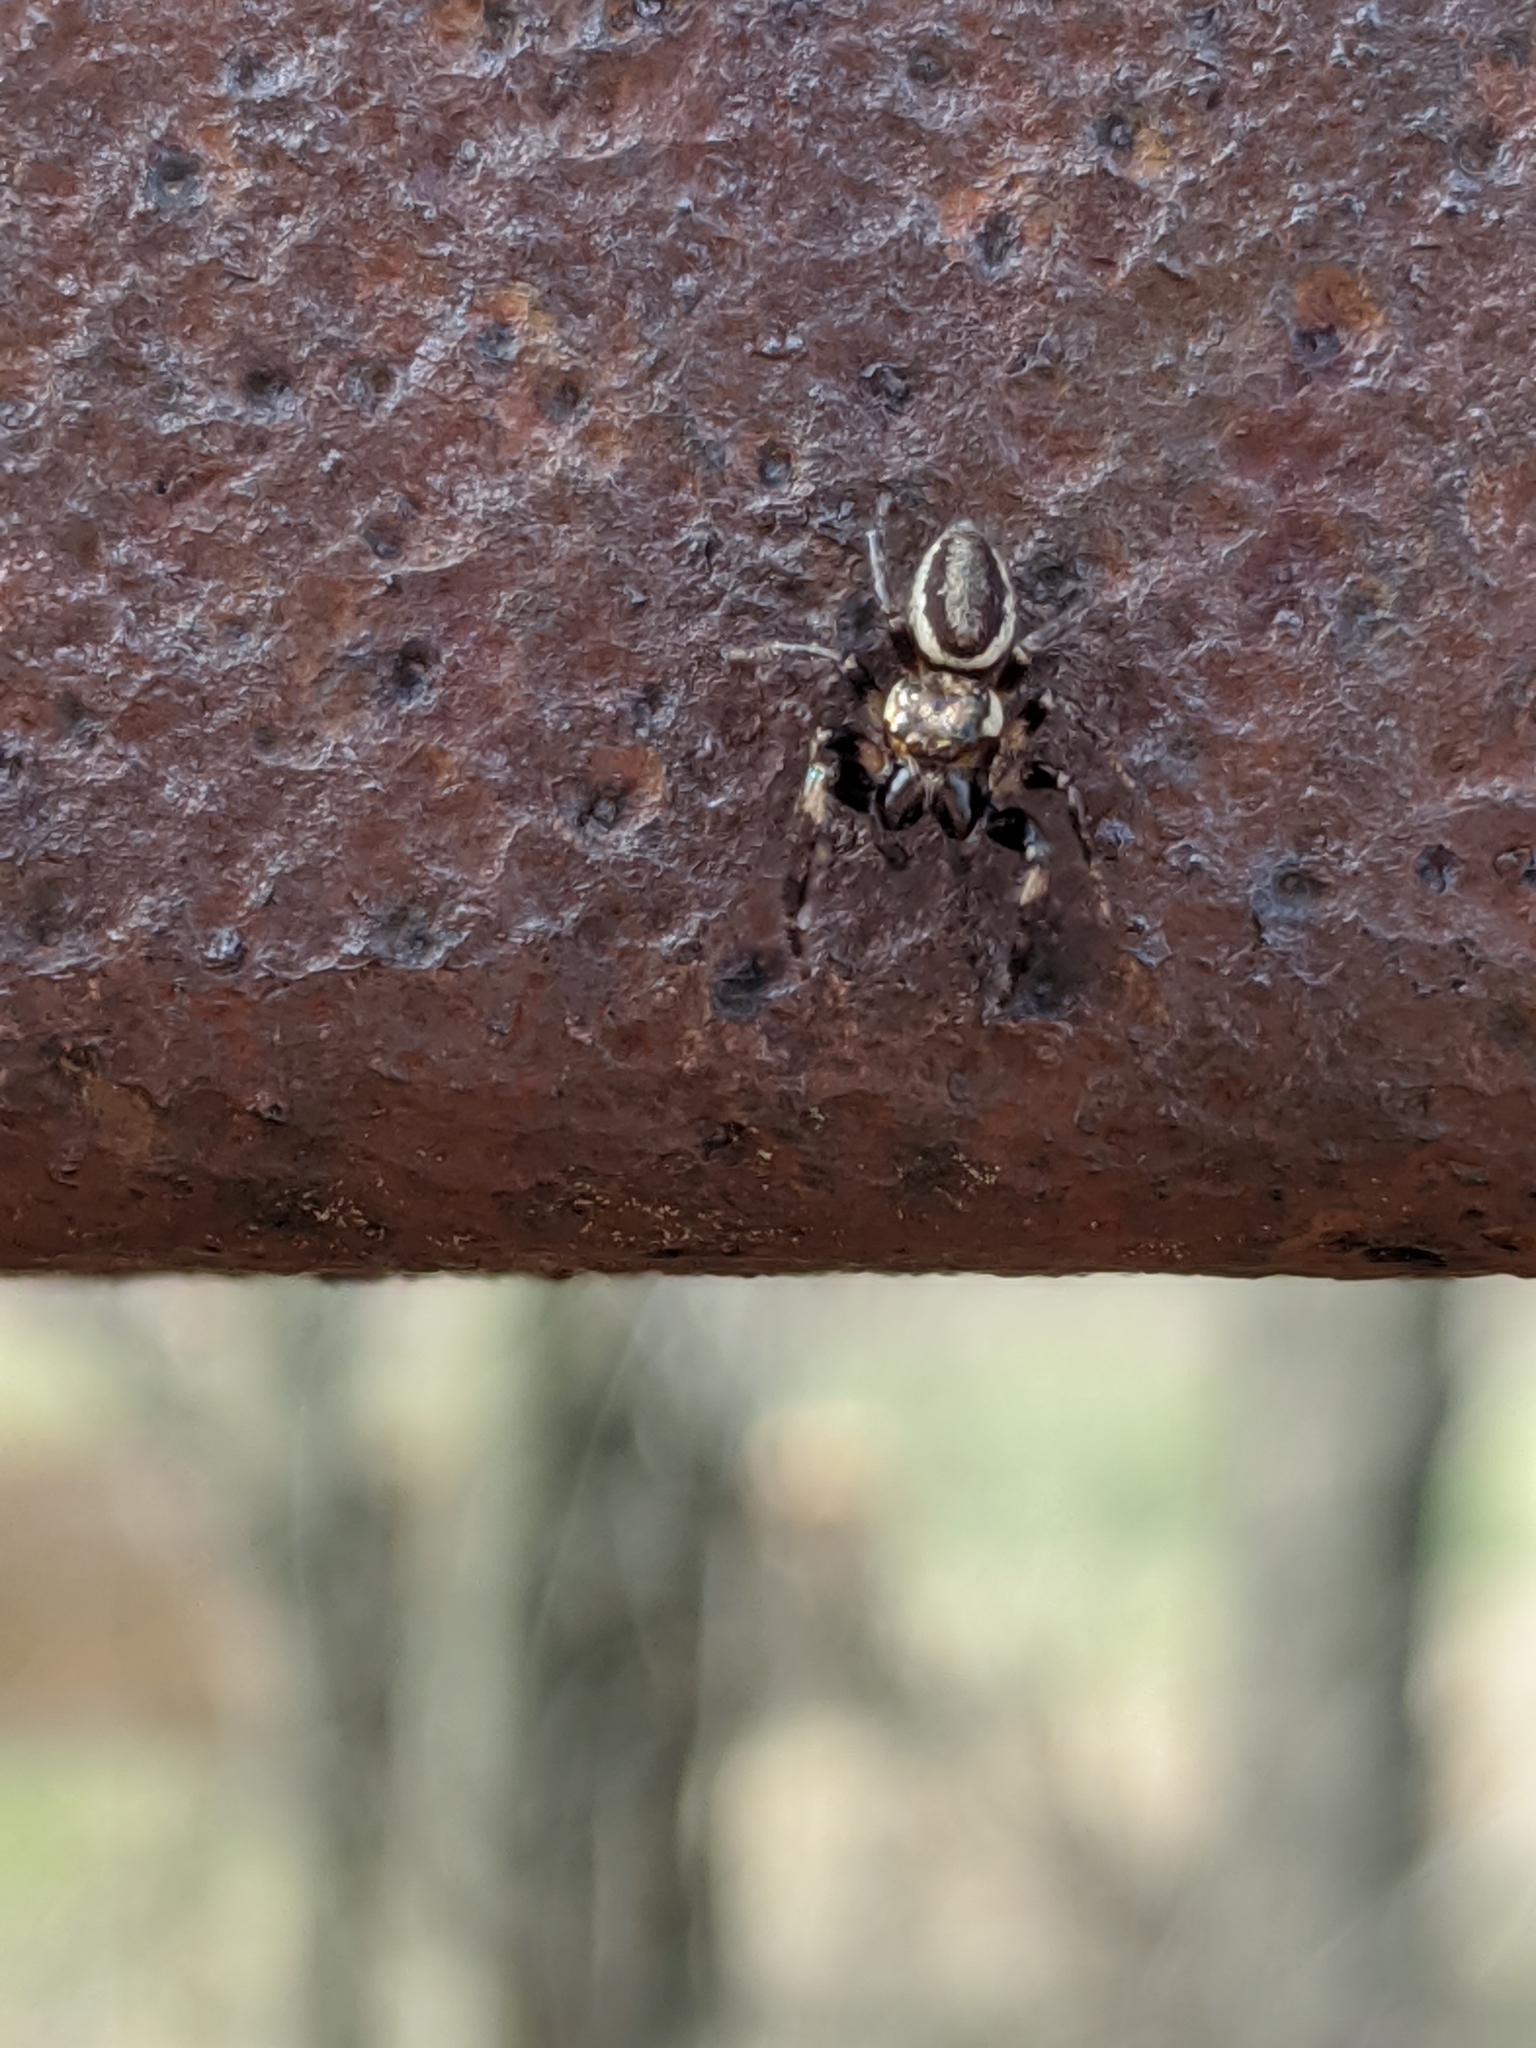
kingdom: Animalia
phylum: Arthropoda
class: Arachnida
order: Araneae
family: Salticidae
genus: Eris
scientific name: Eris militaris
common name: Bronze jumper
